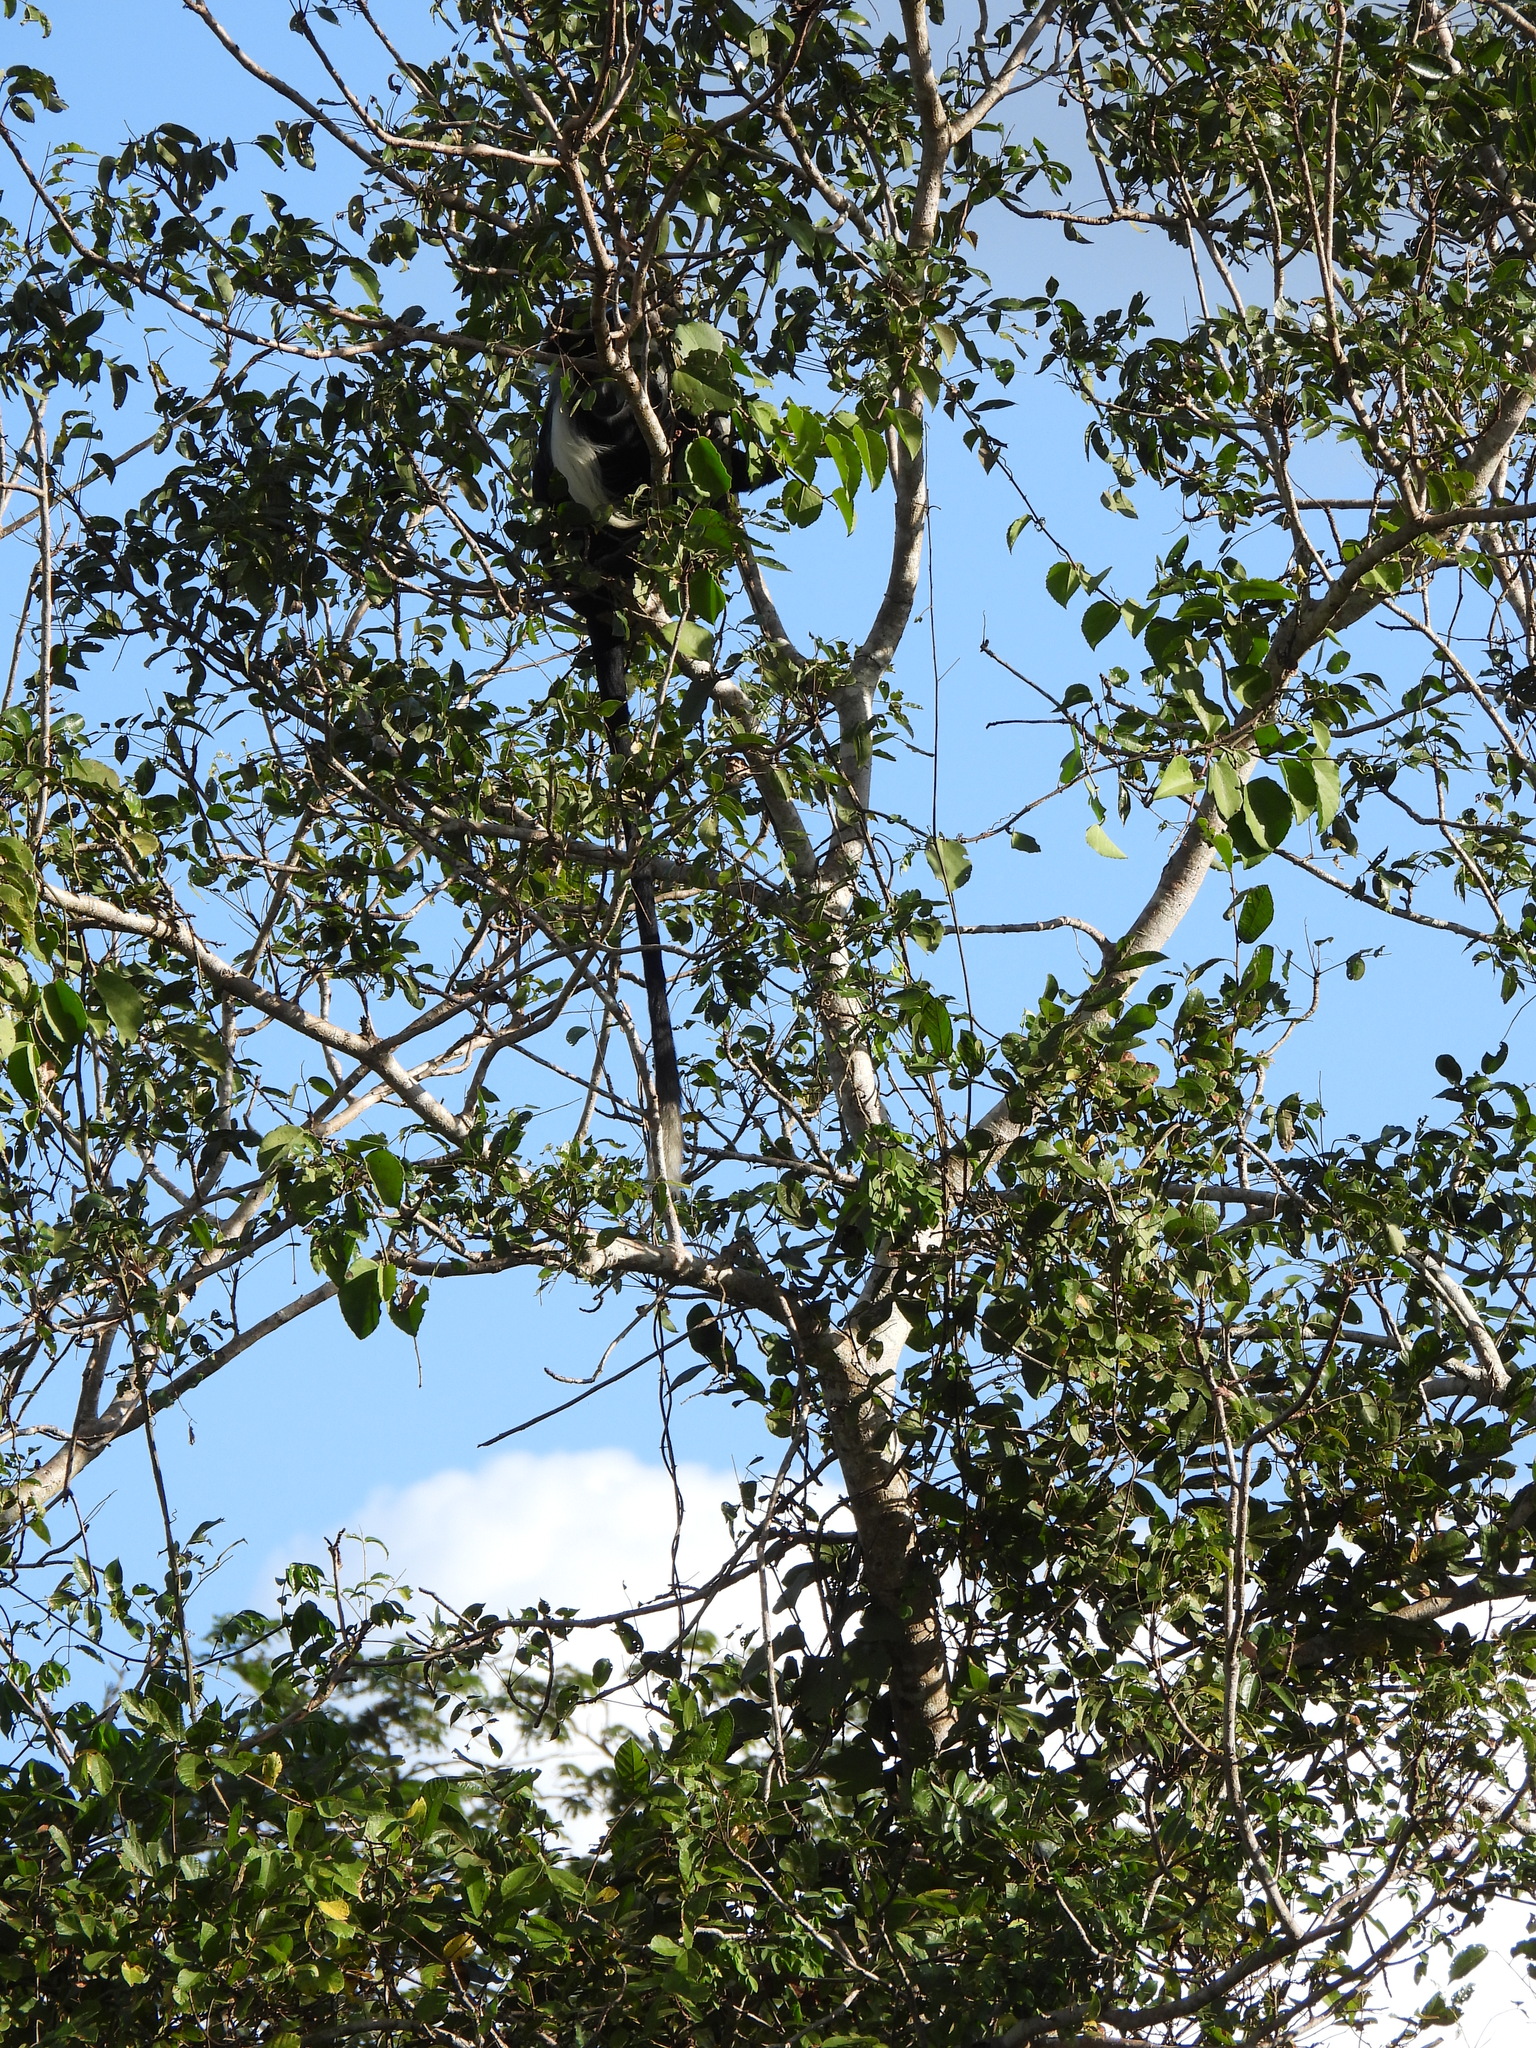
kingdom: Animalia
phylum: Chordata
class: Mammalia
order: Primates
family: Cercopithecidae
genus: Colobus
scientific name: Colobus angolensis
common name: Angola colobus
